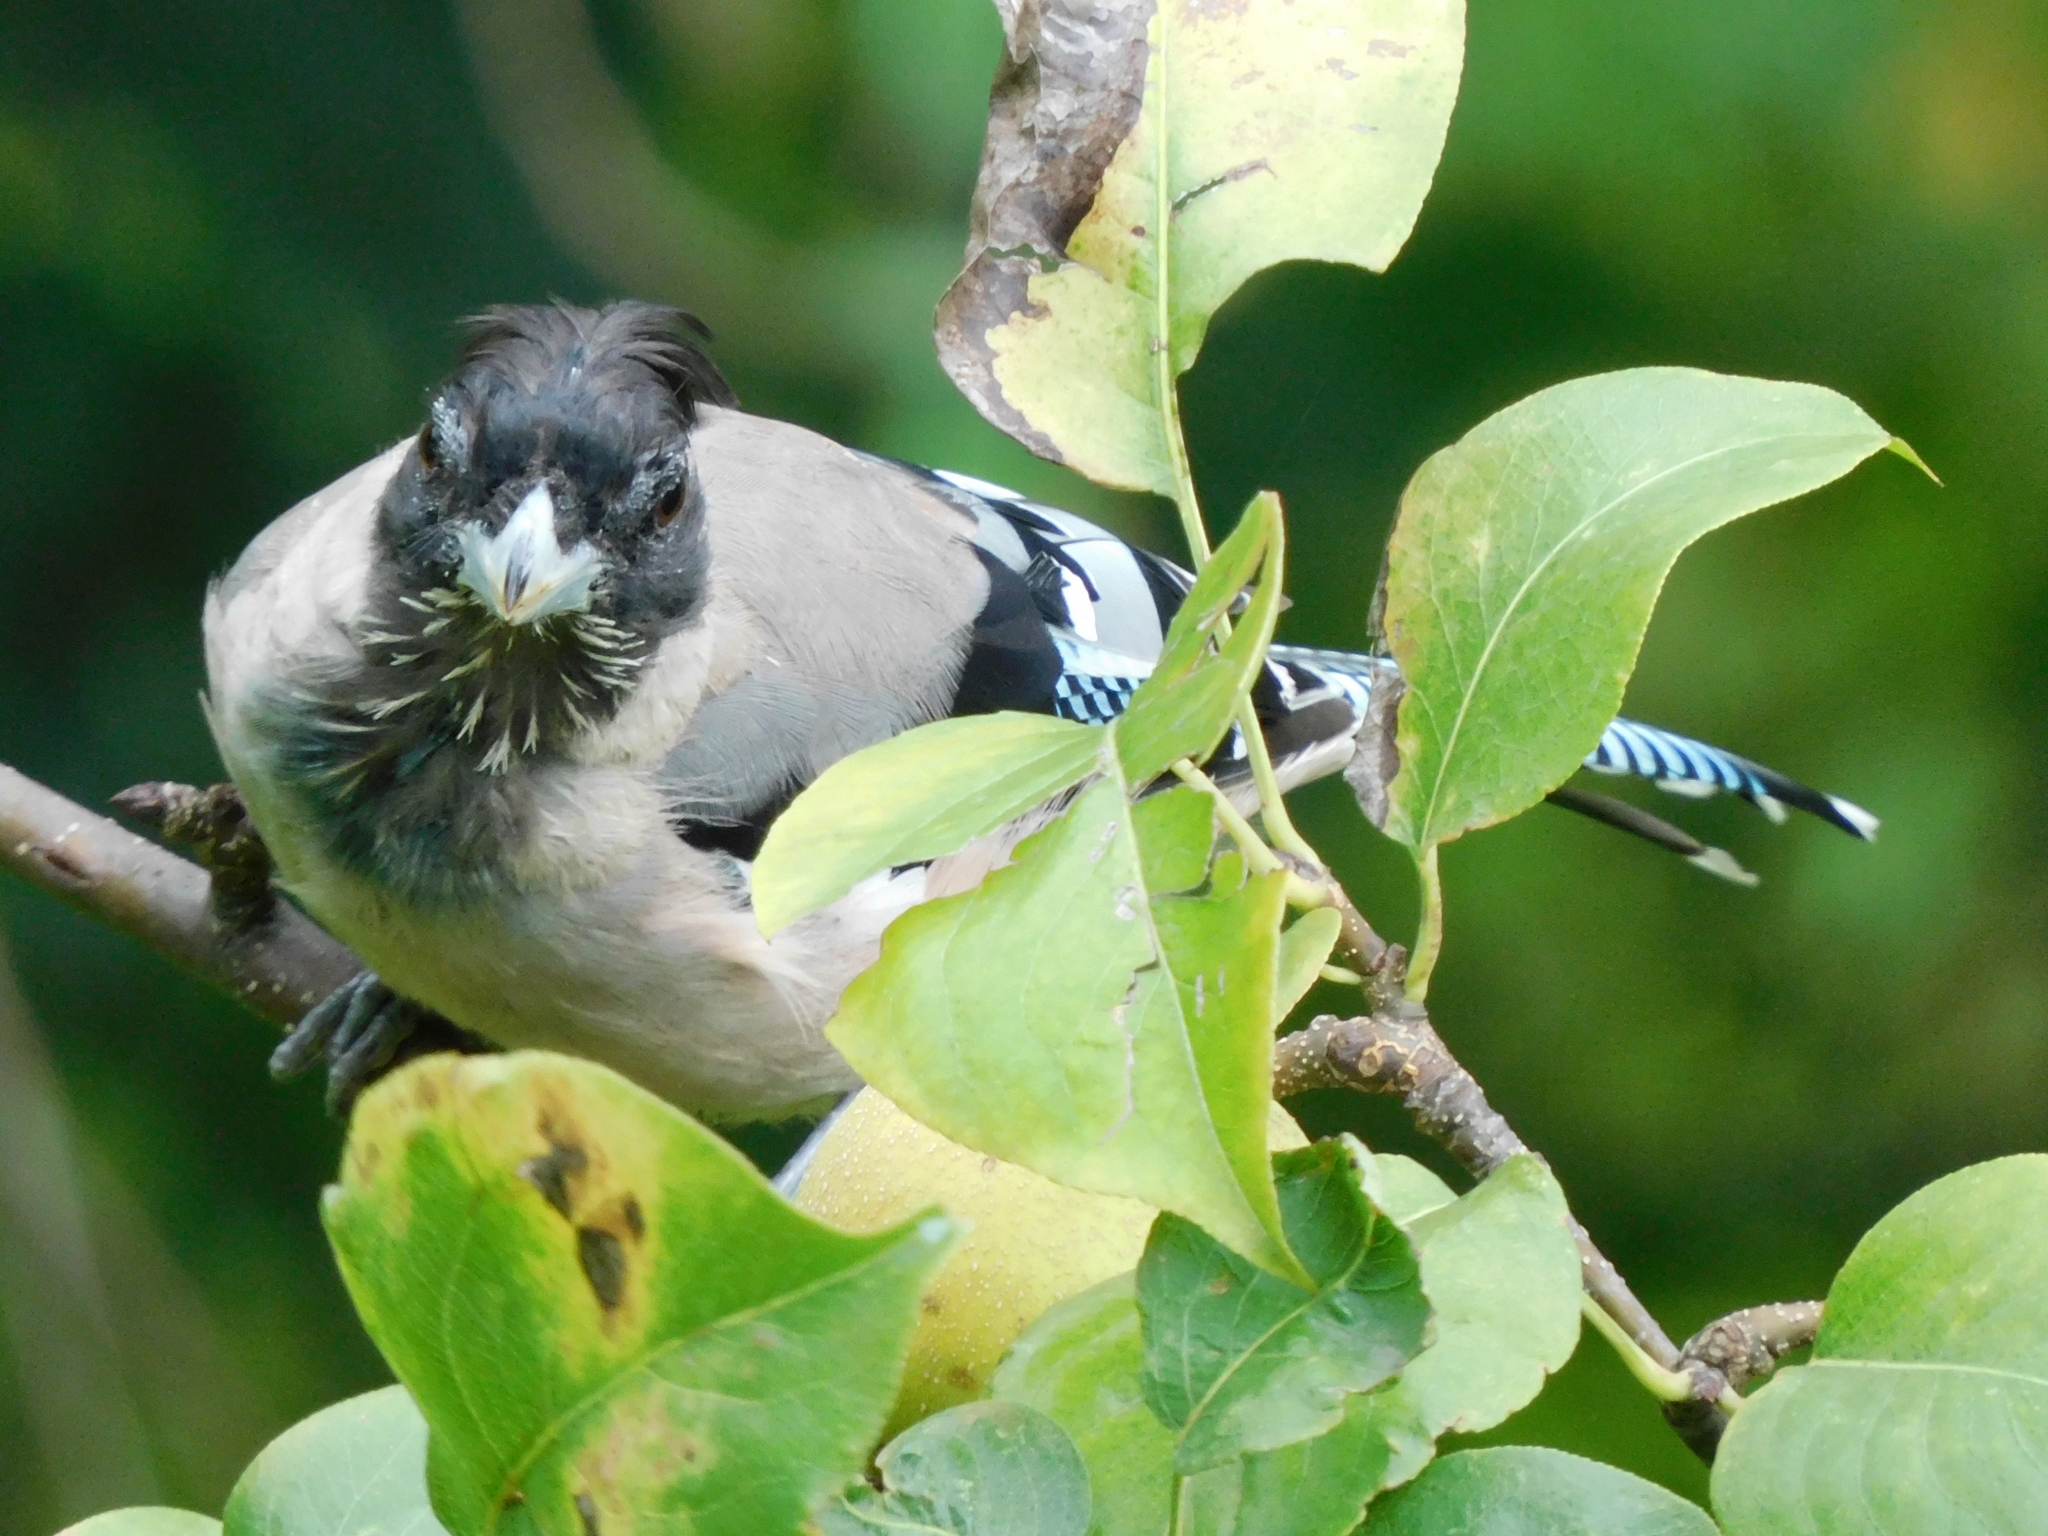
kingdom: Animalia
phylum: Chordata
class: Aves
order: Passeriformes
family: Corvidae
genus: Garrulus
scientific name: Garrulus lanceolatus
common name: Black-headed jay
